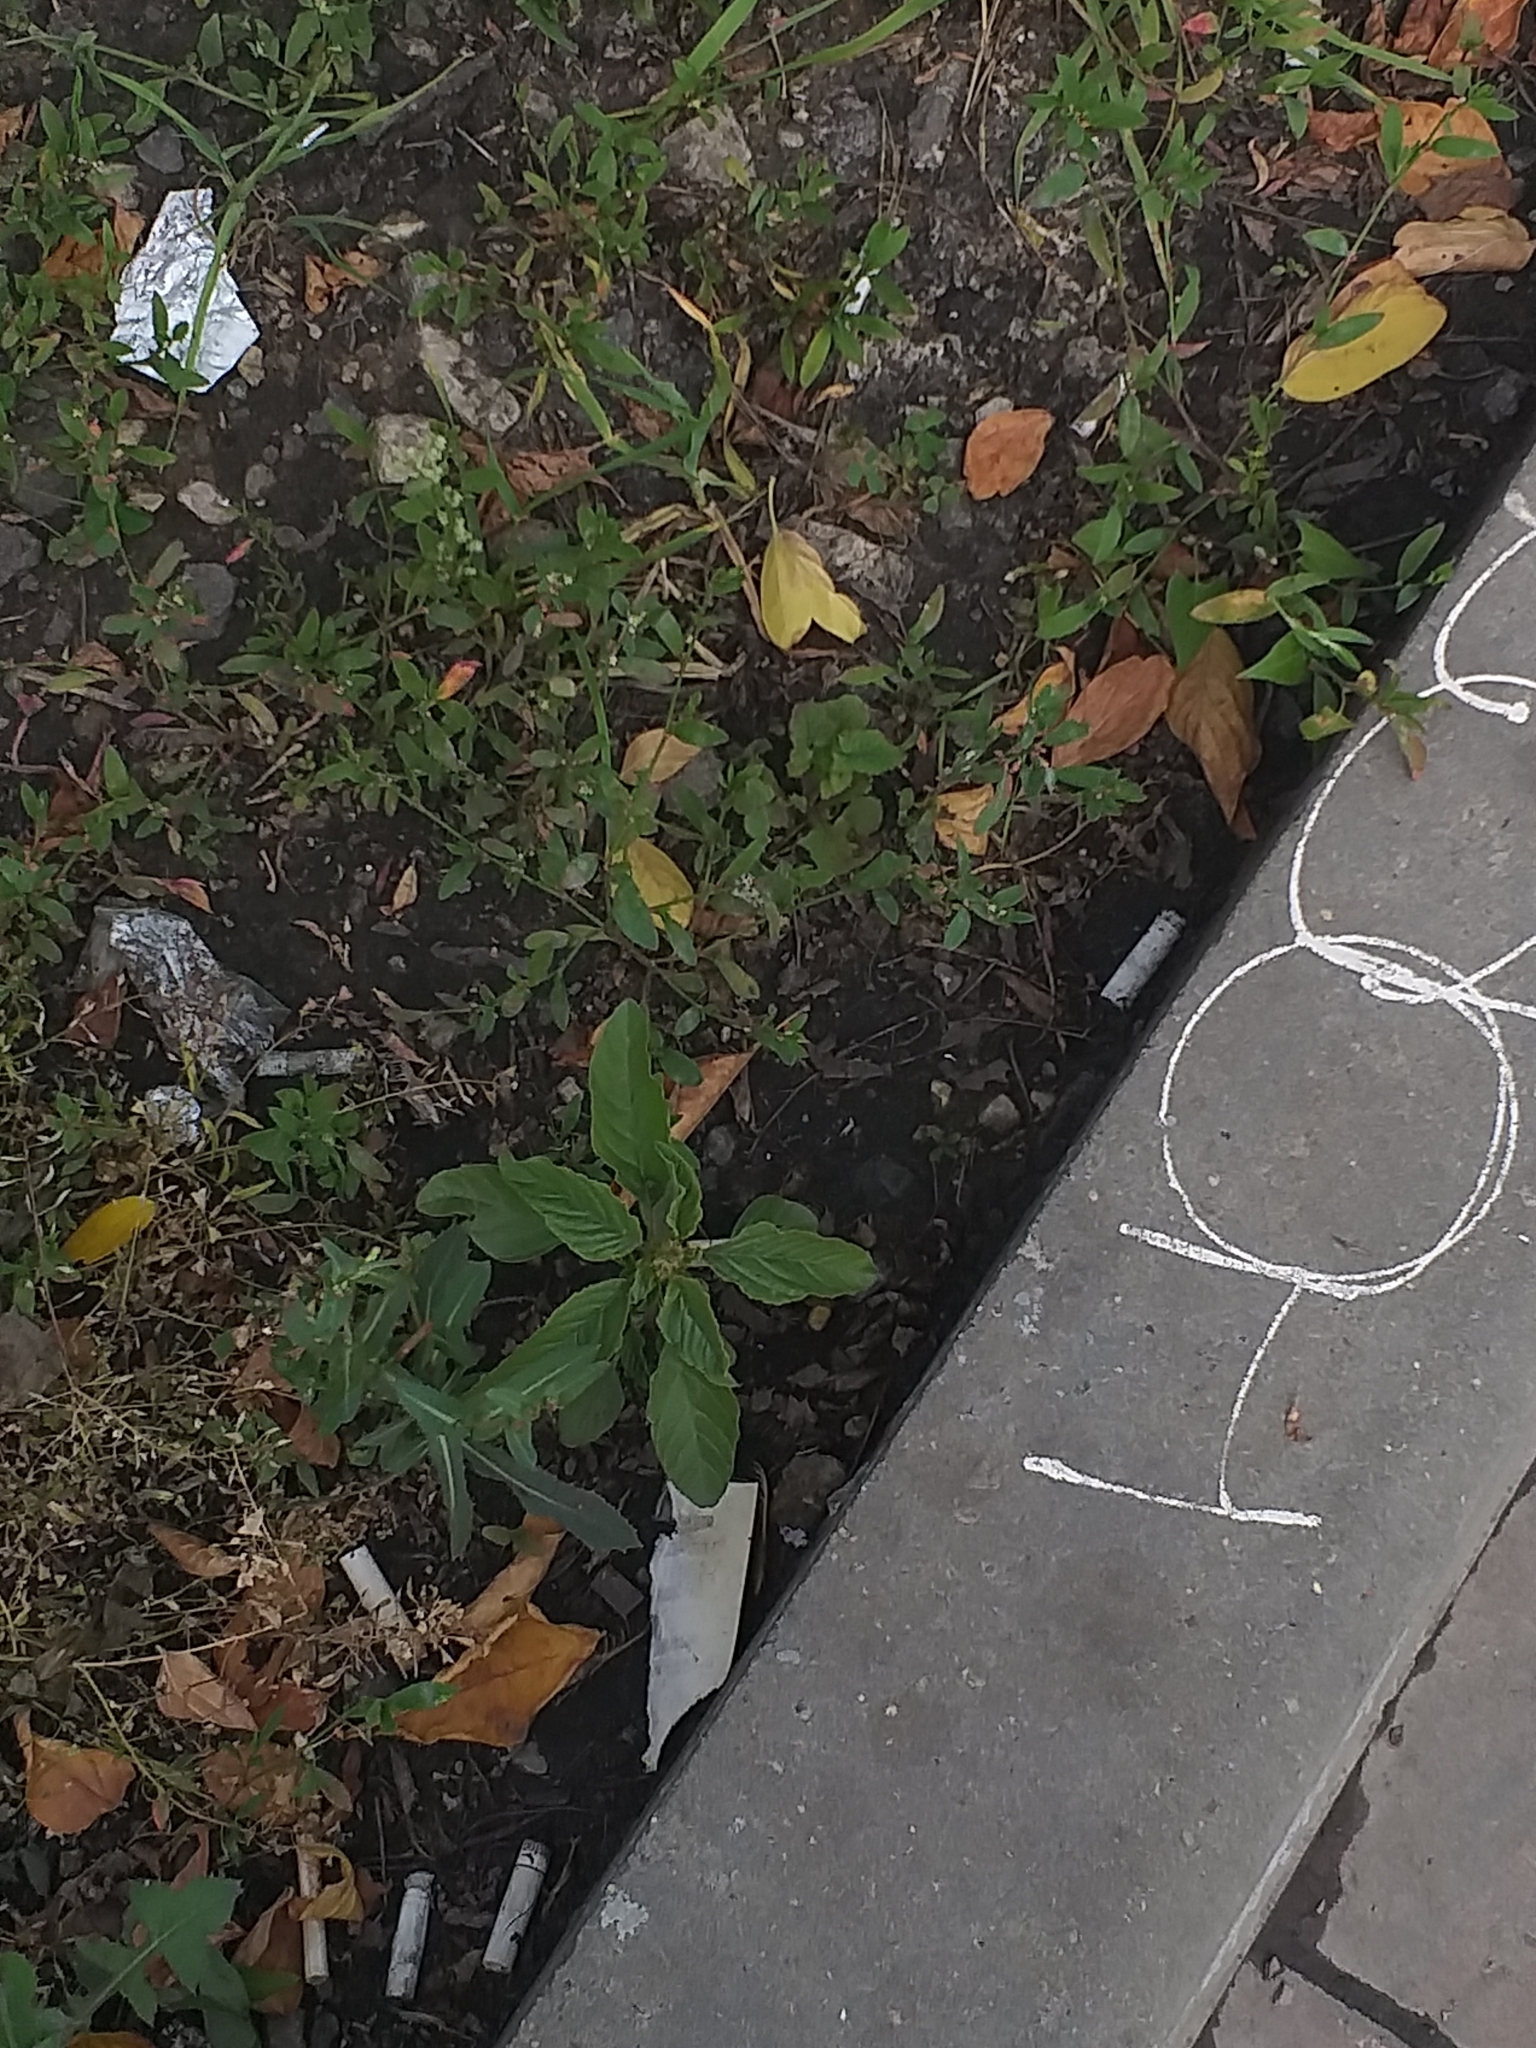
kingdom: Plantae
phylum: Tracheophyta
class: Magnoliopsida
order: Caryophyllales
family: Amaranthaceae
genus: Amaranthus
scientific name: Amaranthus retroflexus
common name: Redroot amaranth
